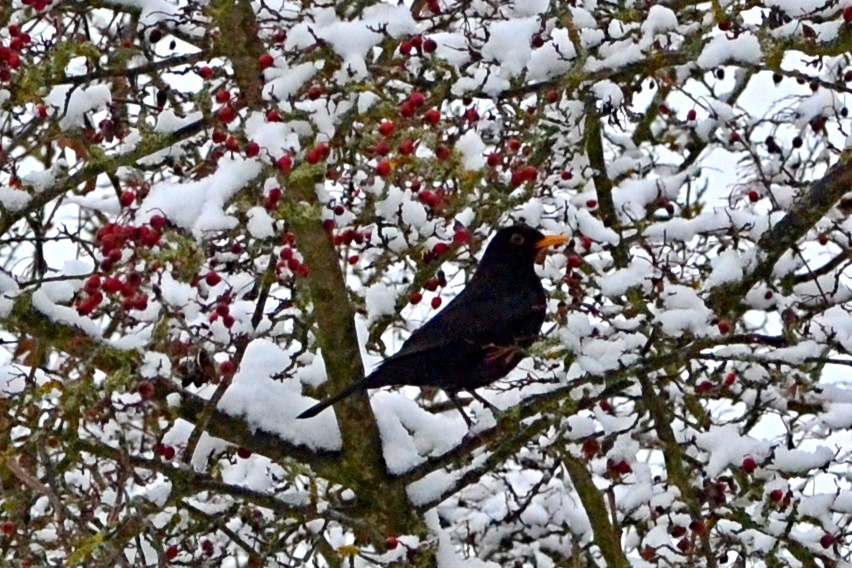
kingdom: Animalia
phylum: Chordata
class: Aves
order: Passeriformes
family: Turdidae
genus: Turdus
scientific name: Turdus merula
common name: Common blackbird
